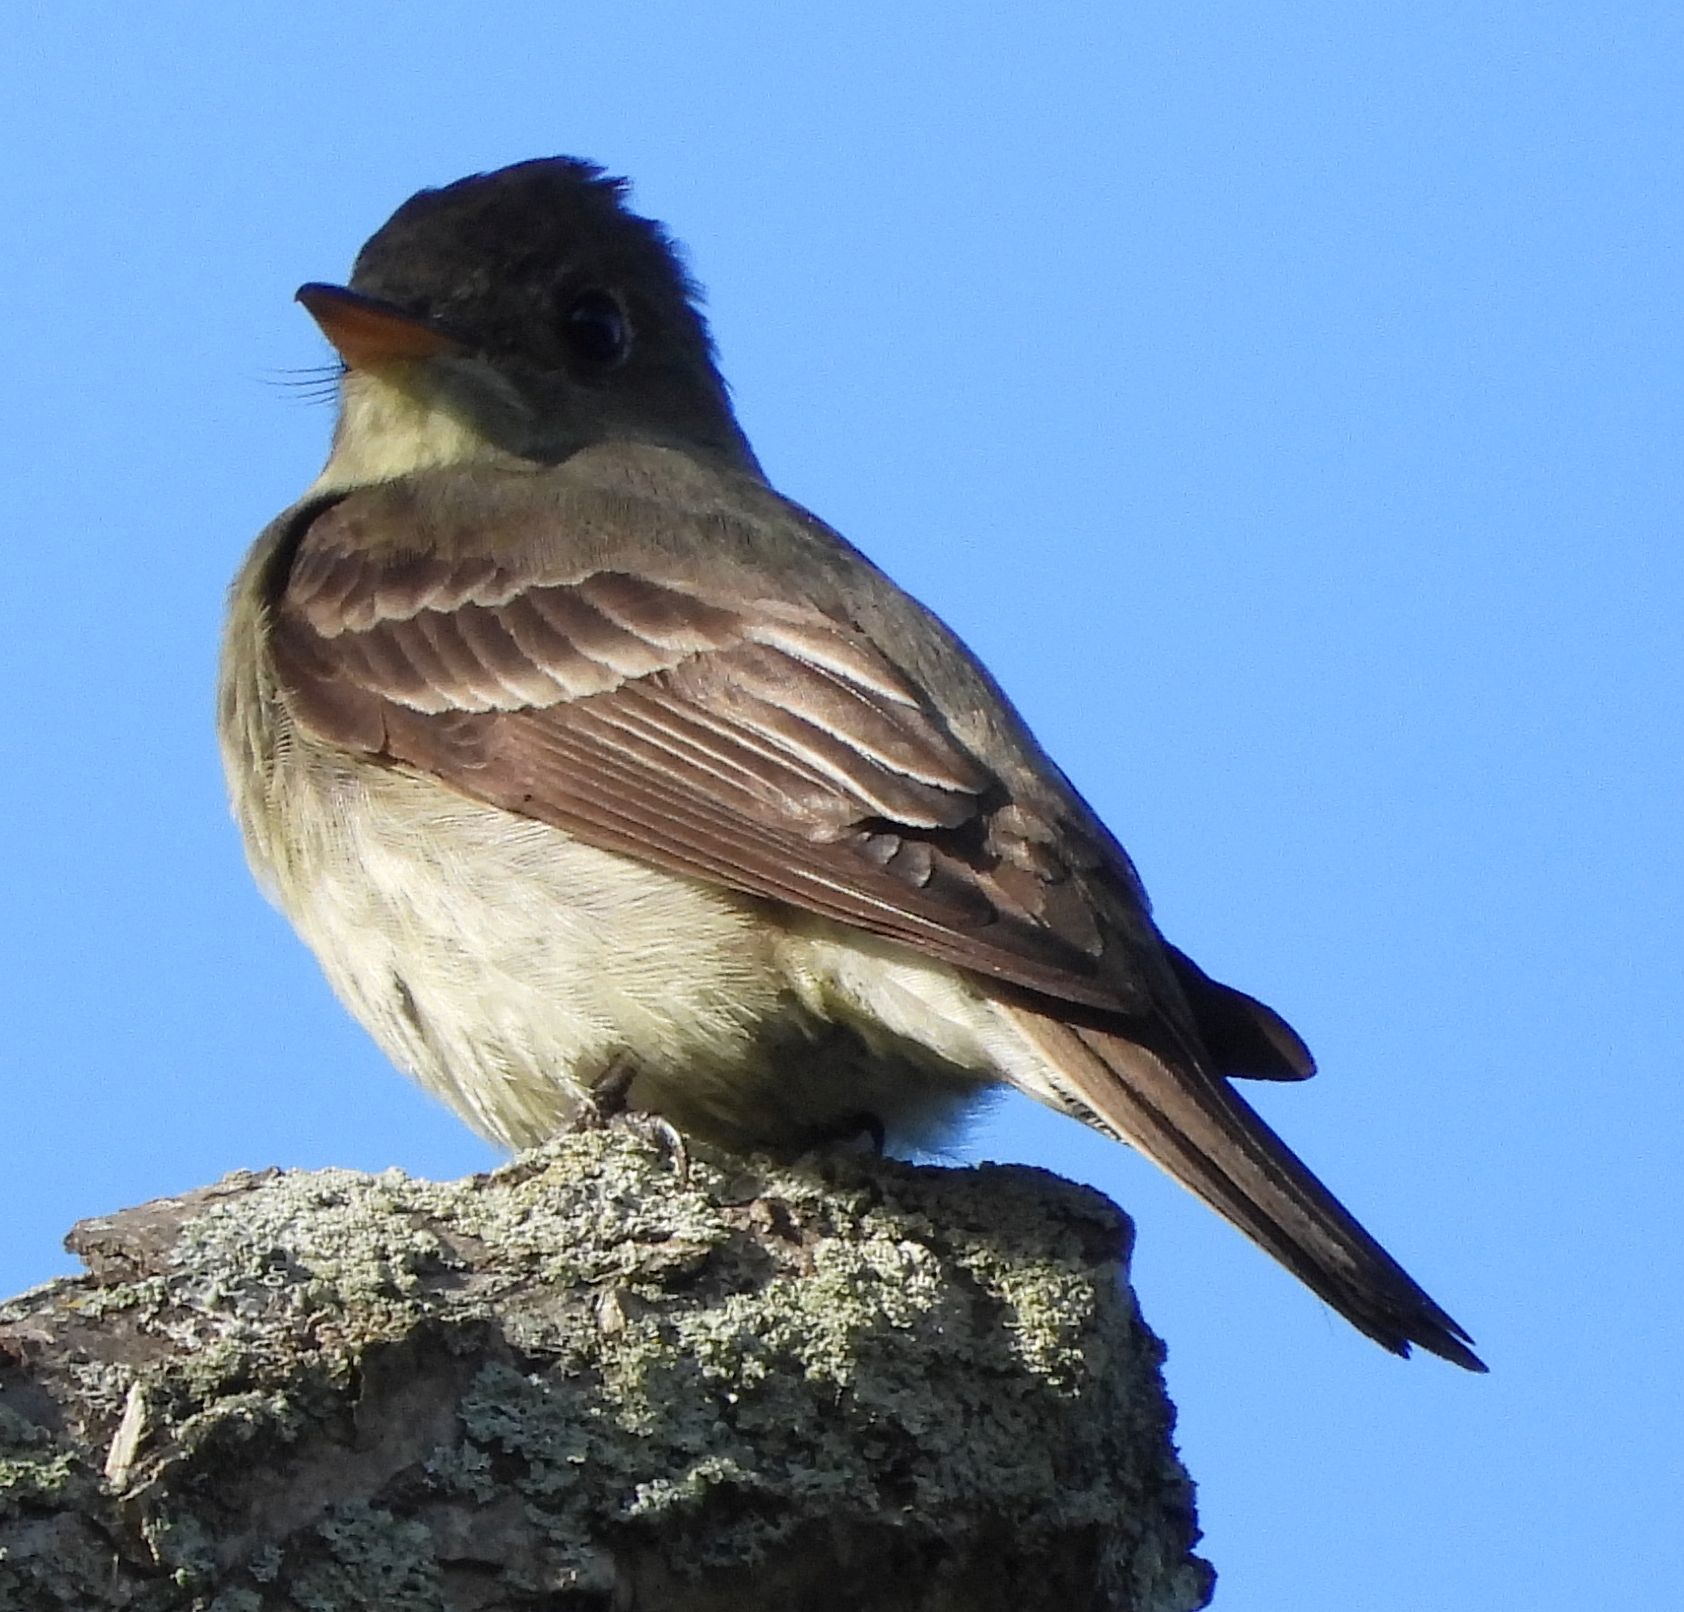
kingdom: Animalia
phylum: Chordata
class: Aves
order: Passeriformes
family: Tyrannidae
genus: Contopus
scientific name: Contopus virens
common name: Eastern wood-pewee
